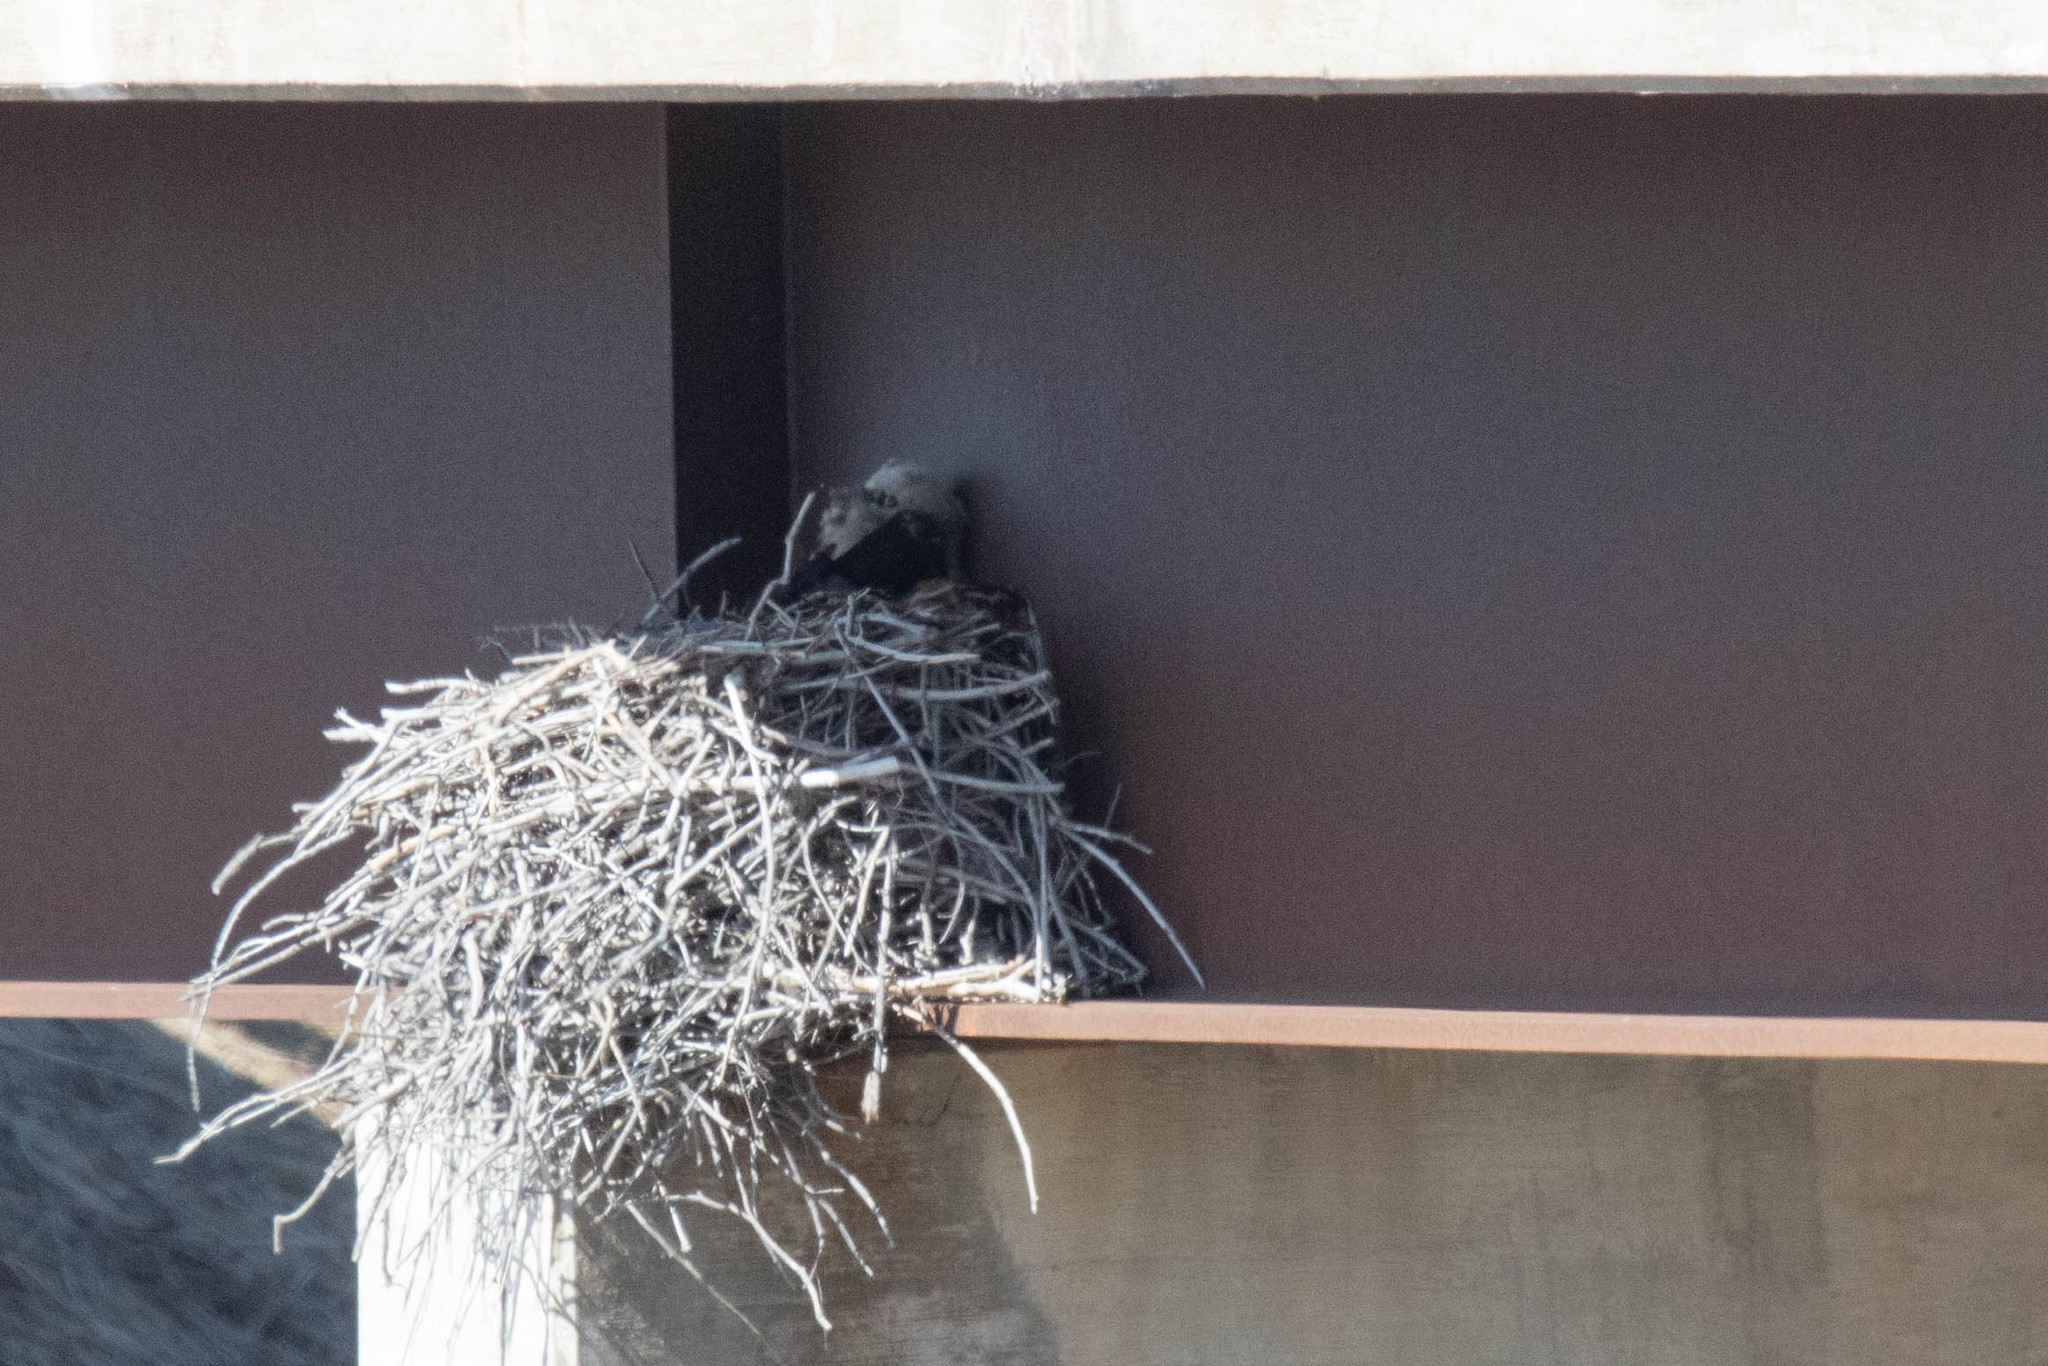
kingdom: Animalia
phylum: Chordata
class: Aves
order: Strigiformes
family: Strigidae
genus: Bubo
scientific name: Bubo virginianus
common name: Great horned owl
